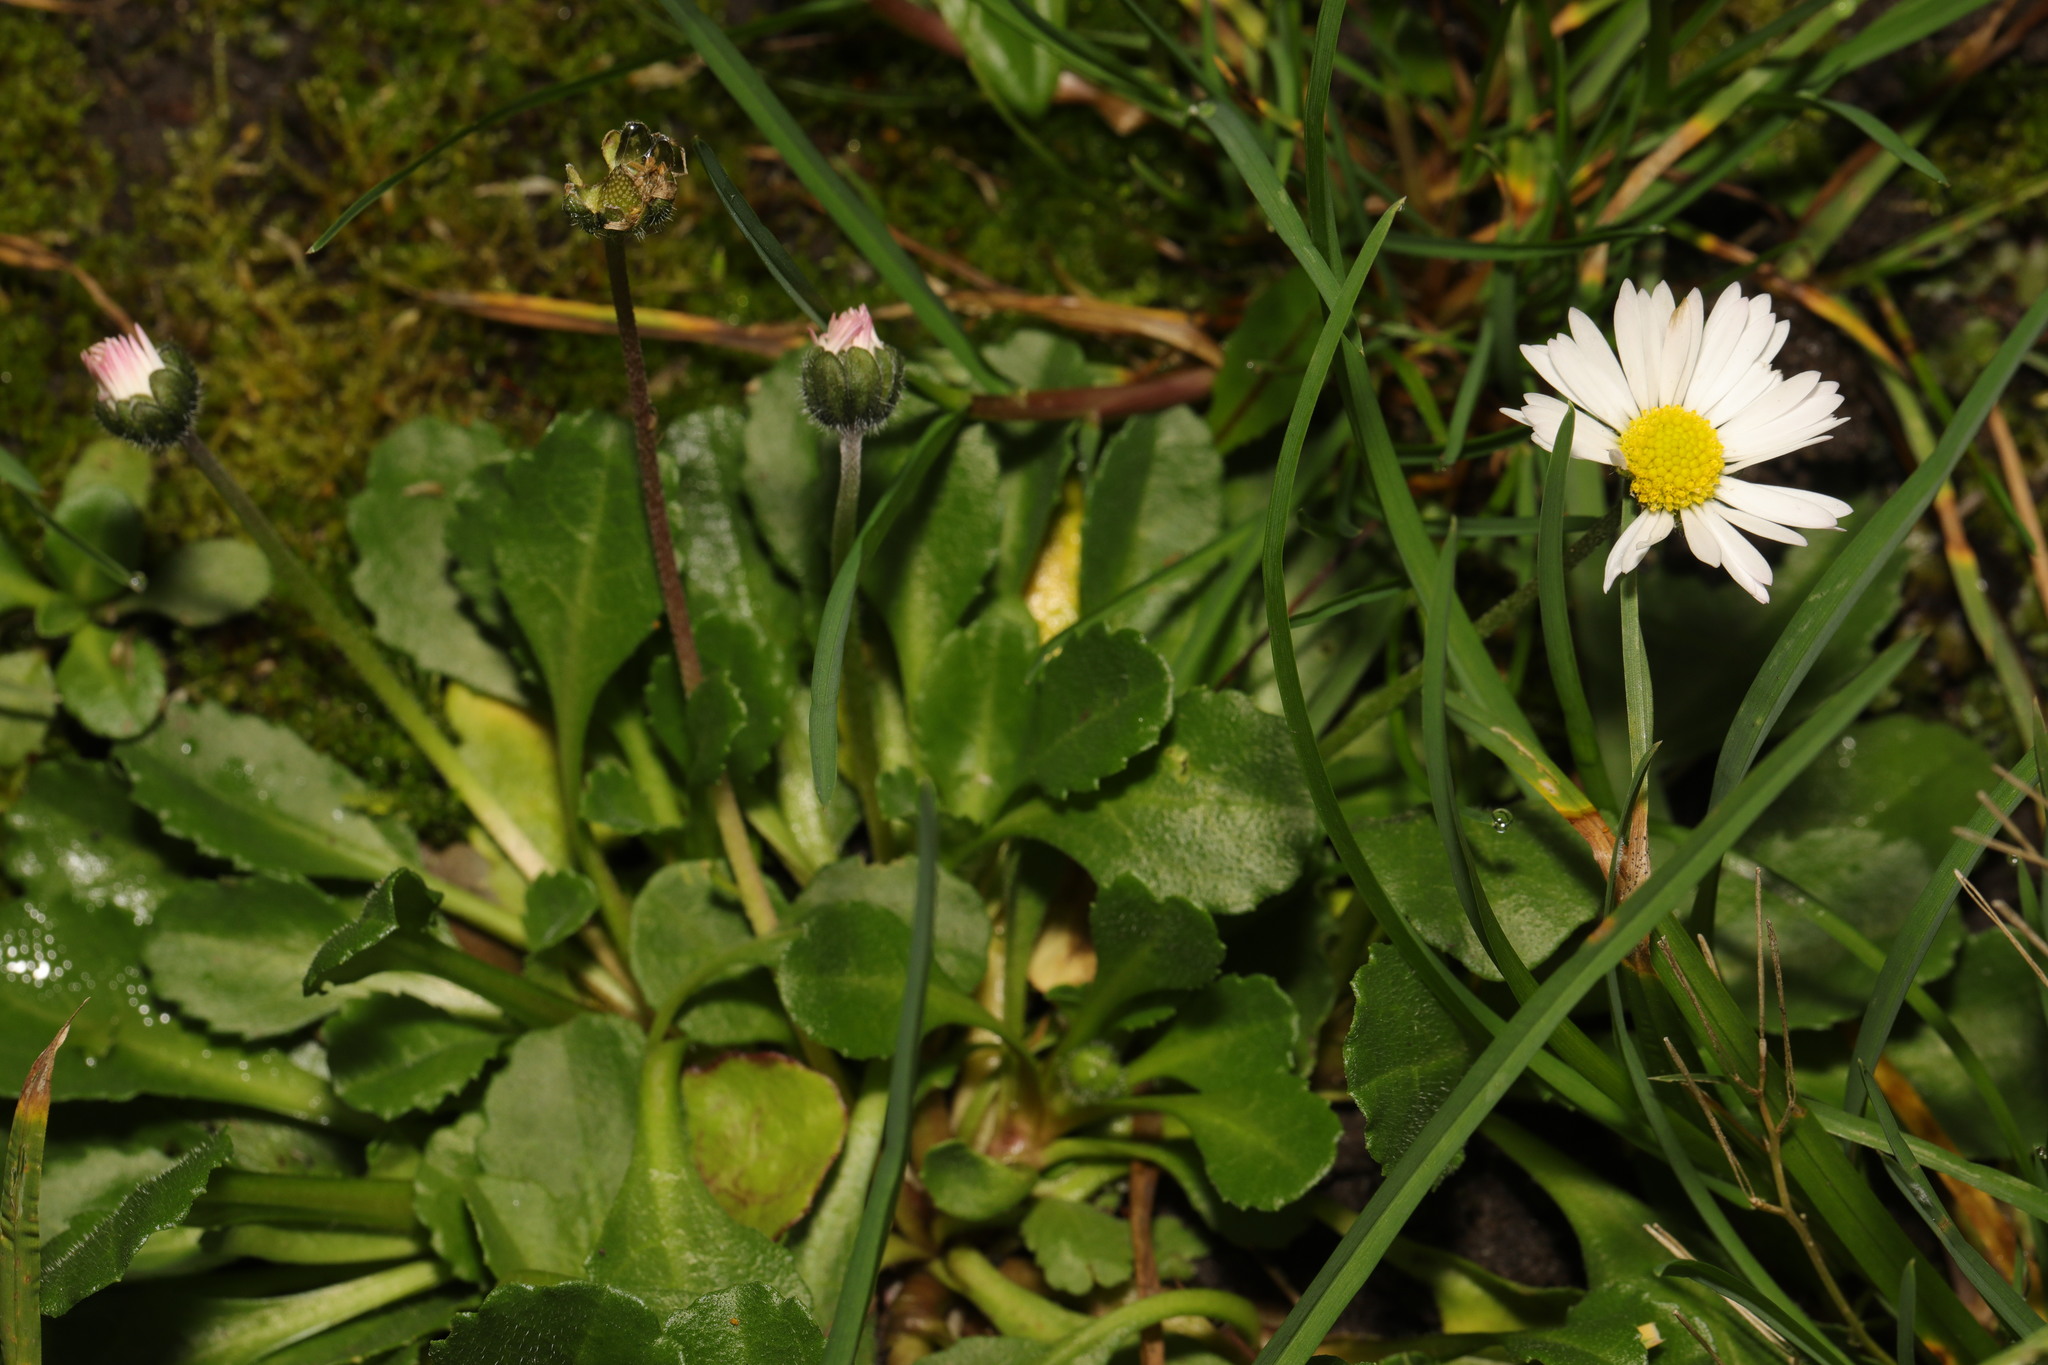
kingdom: Plantae
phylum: Tracheophyta
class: Magnoliopsida
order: Asterales
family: Asteraceae
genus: Bellis
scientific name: Bellis perennis
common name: Lawndaisy
